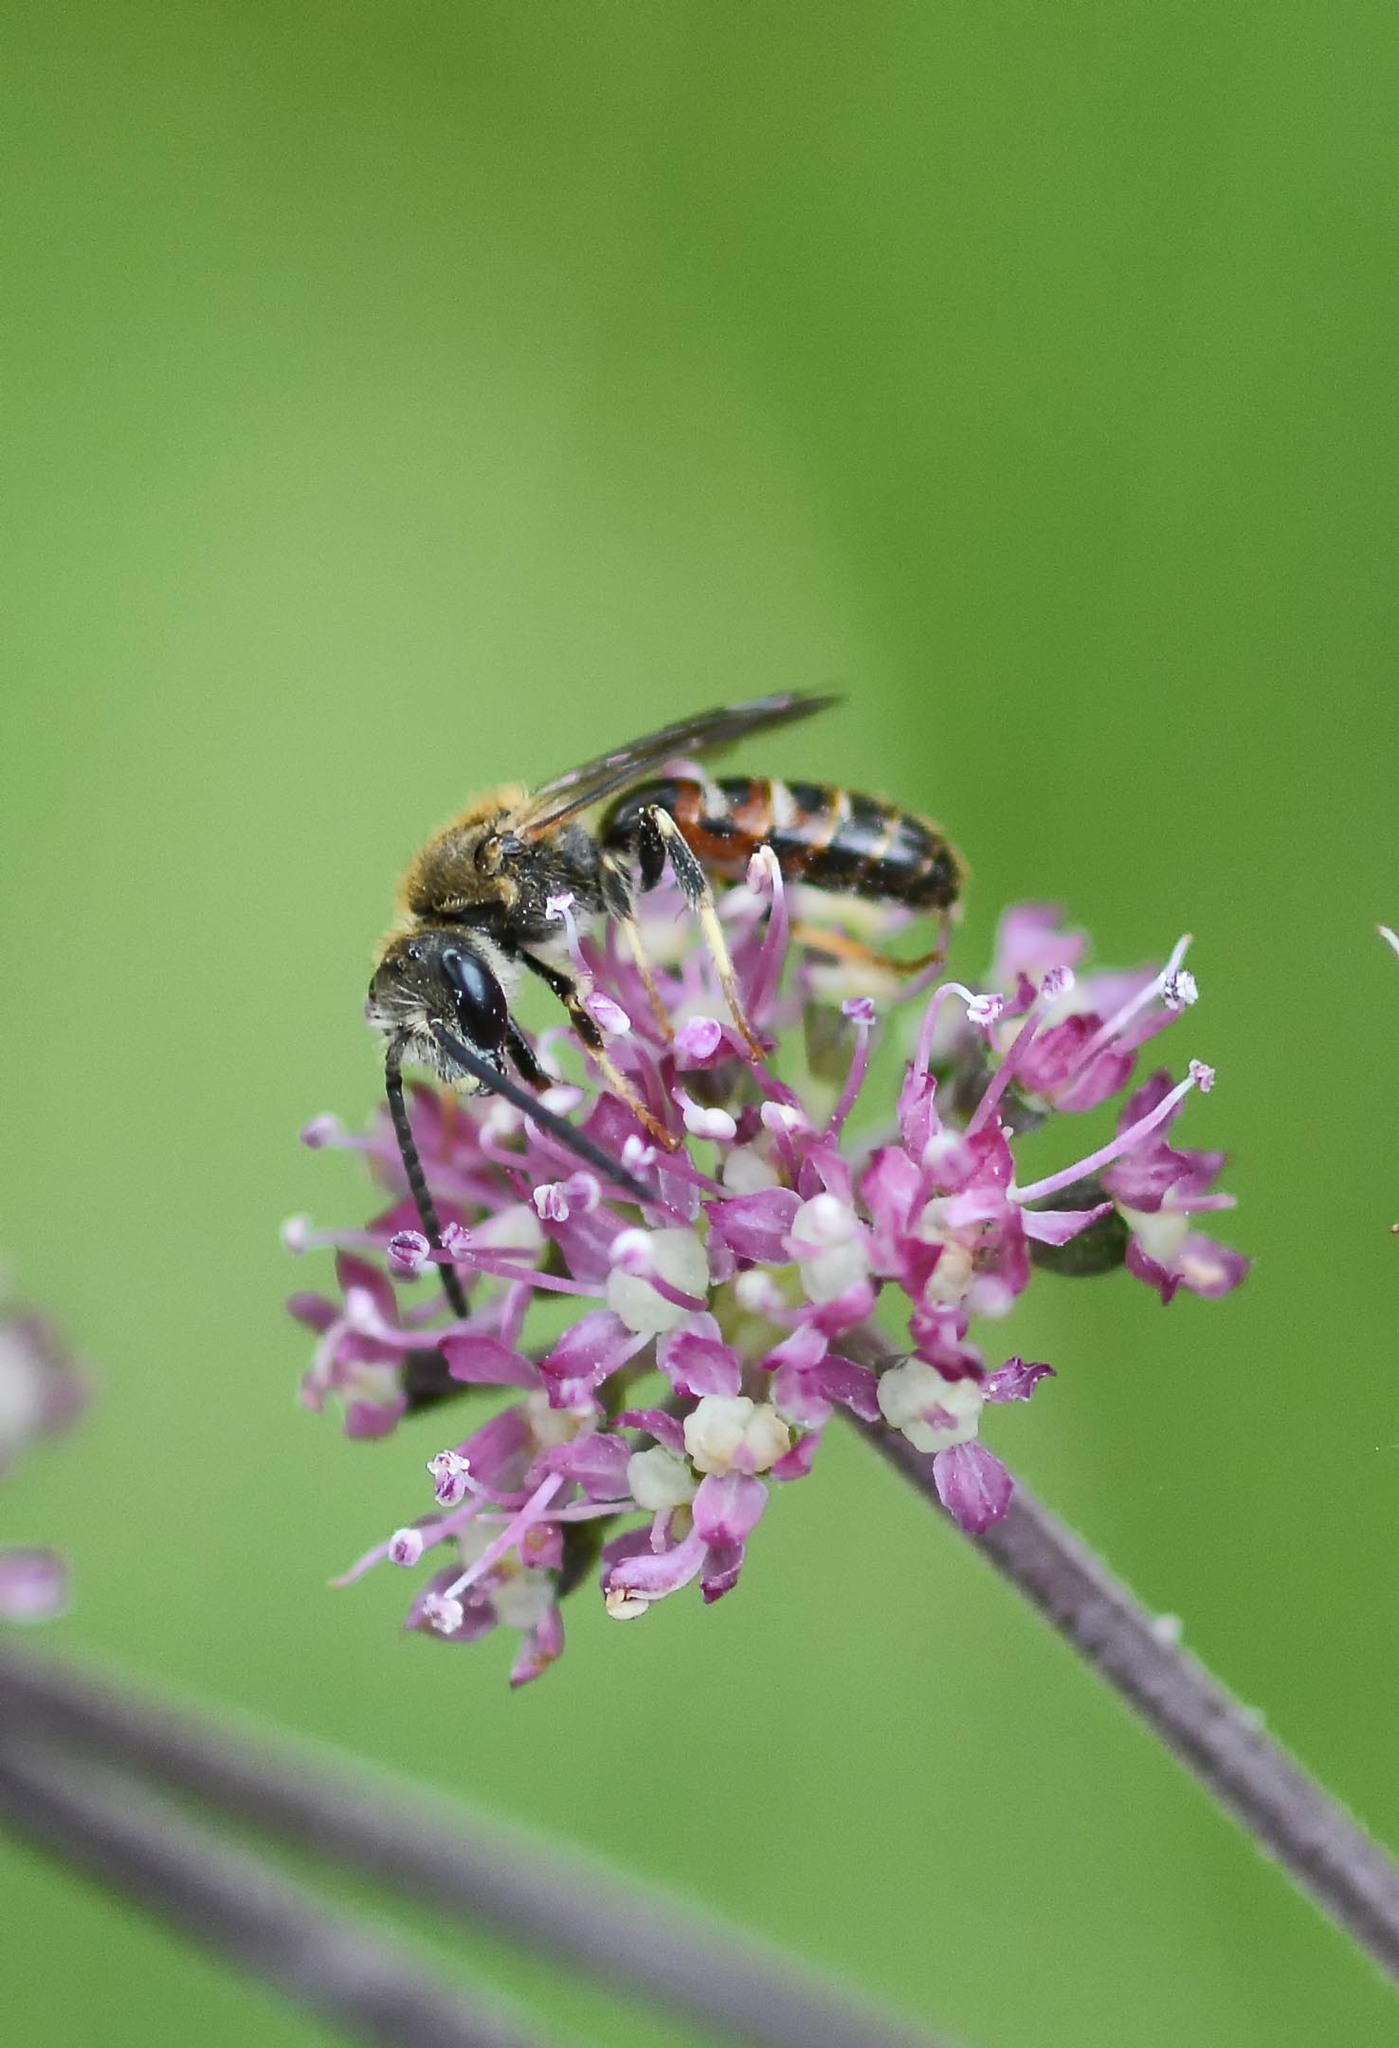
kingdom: Animalia
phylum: Arthropoda
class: Insecta
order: Hymenoptera
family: Halictidae
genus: Lasioglossum
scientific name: Lasioglossum calceatum
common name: Common furrow bee
